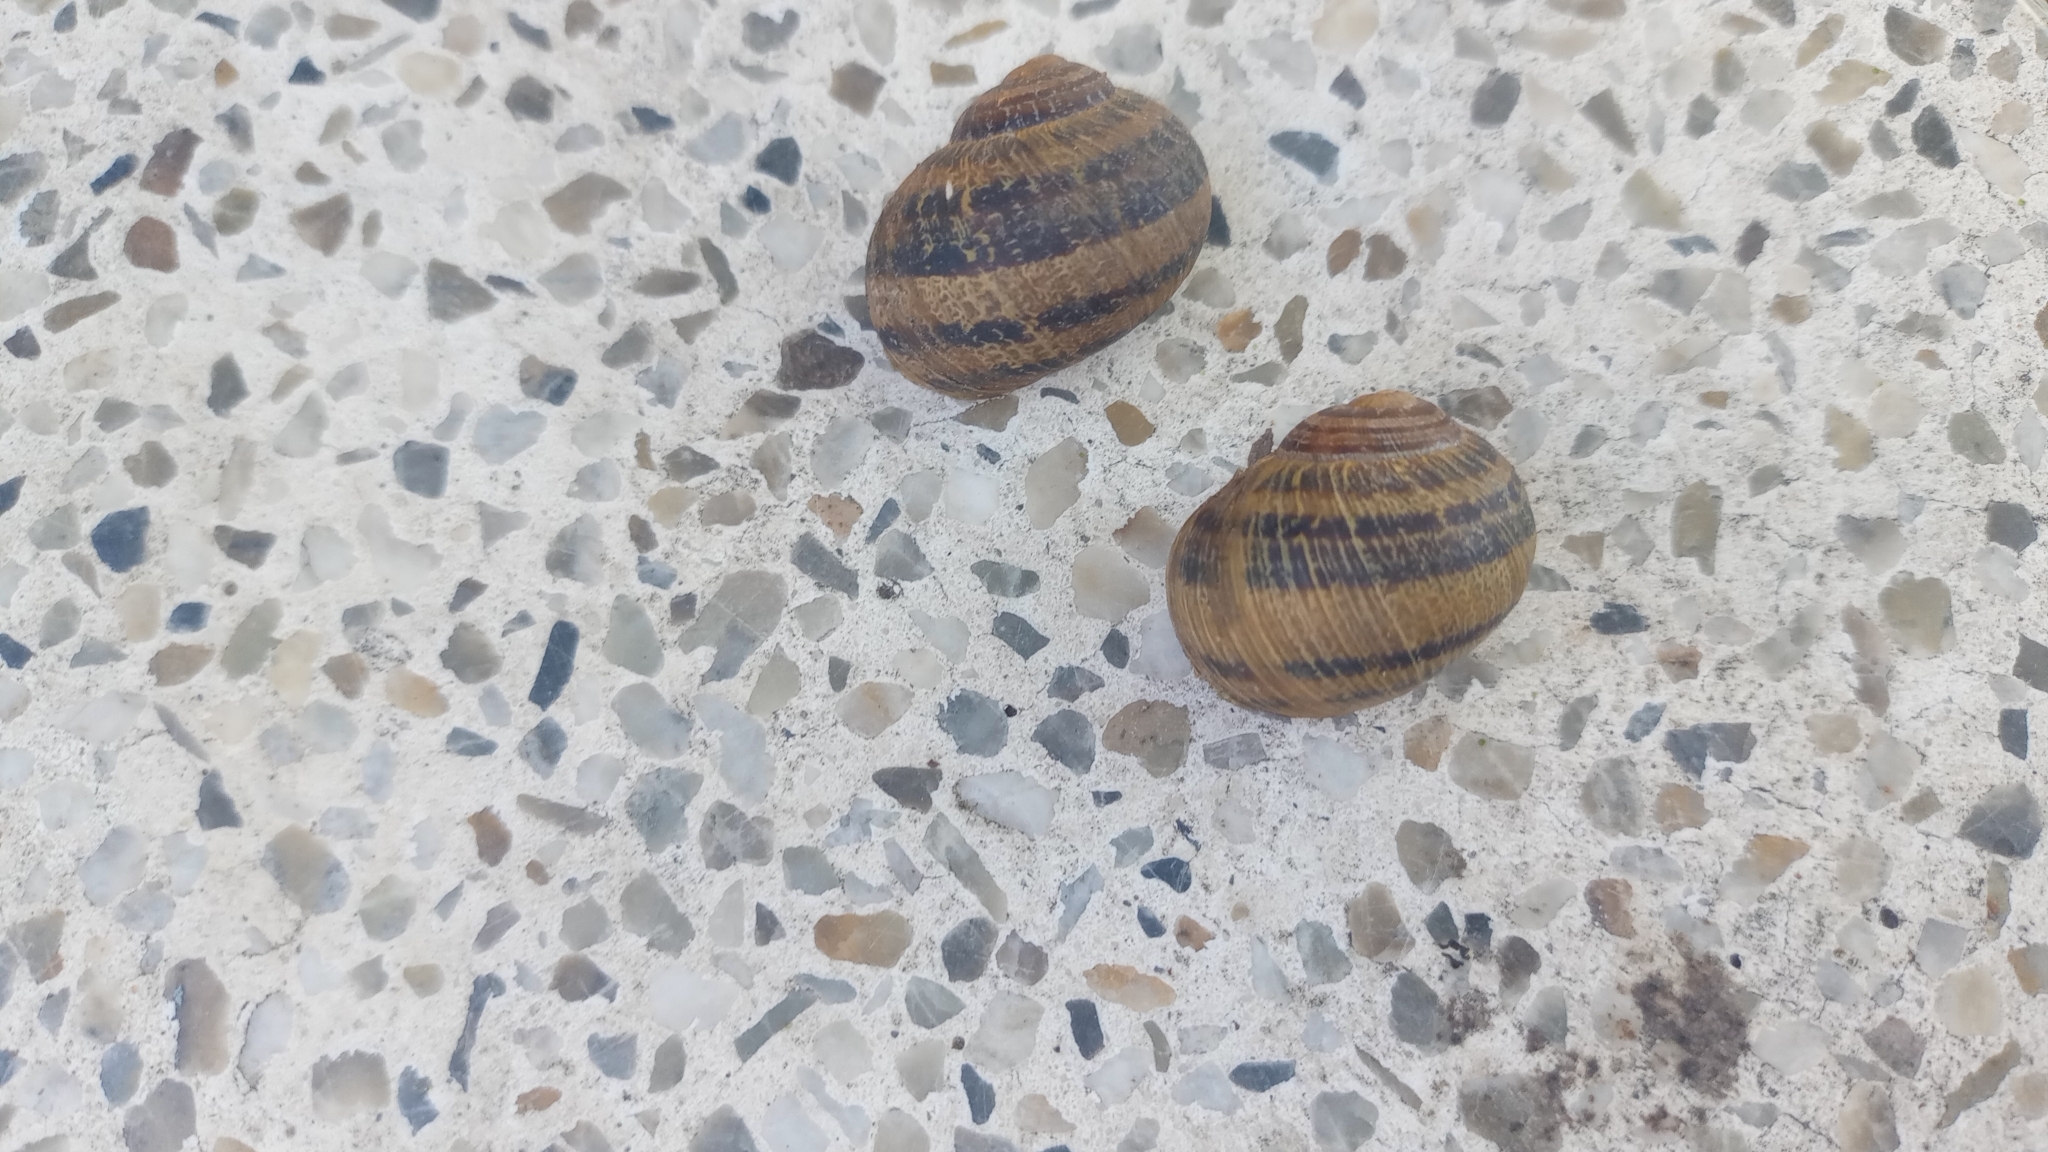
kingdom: Animalia
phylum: Mollusca
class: Gastropoda
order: Stylommatophora
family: Helicidae
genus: Cornu
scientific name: Cornu aspersum
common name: Brown garden snail
